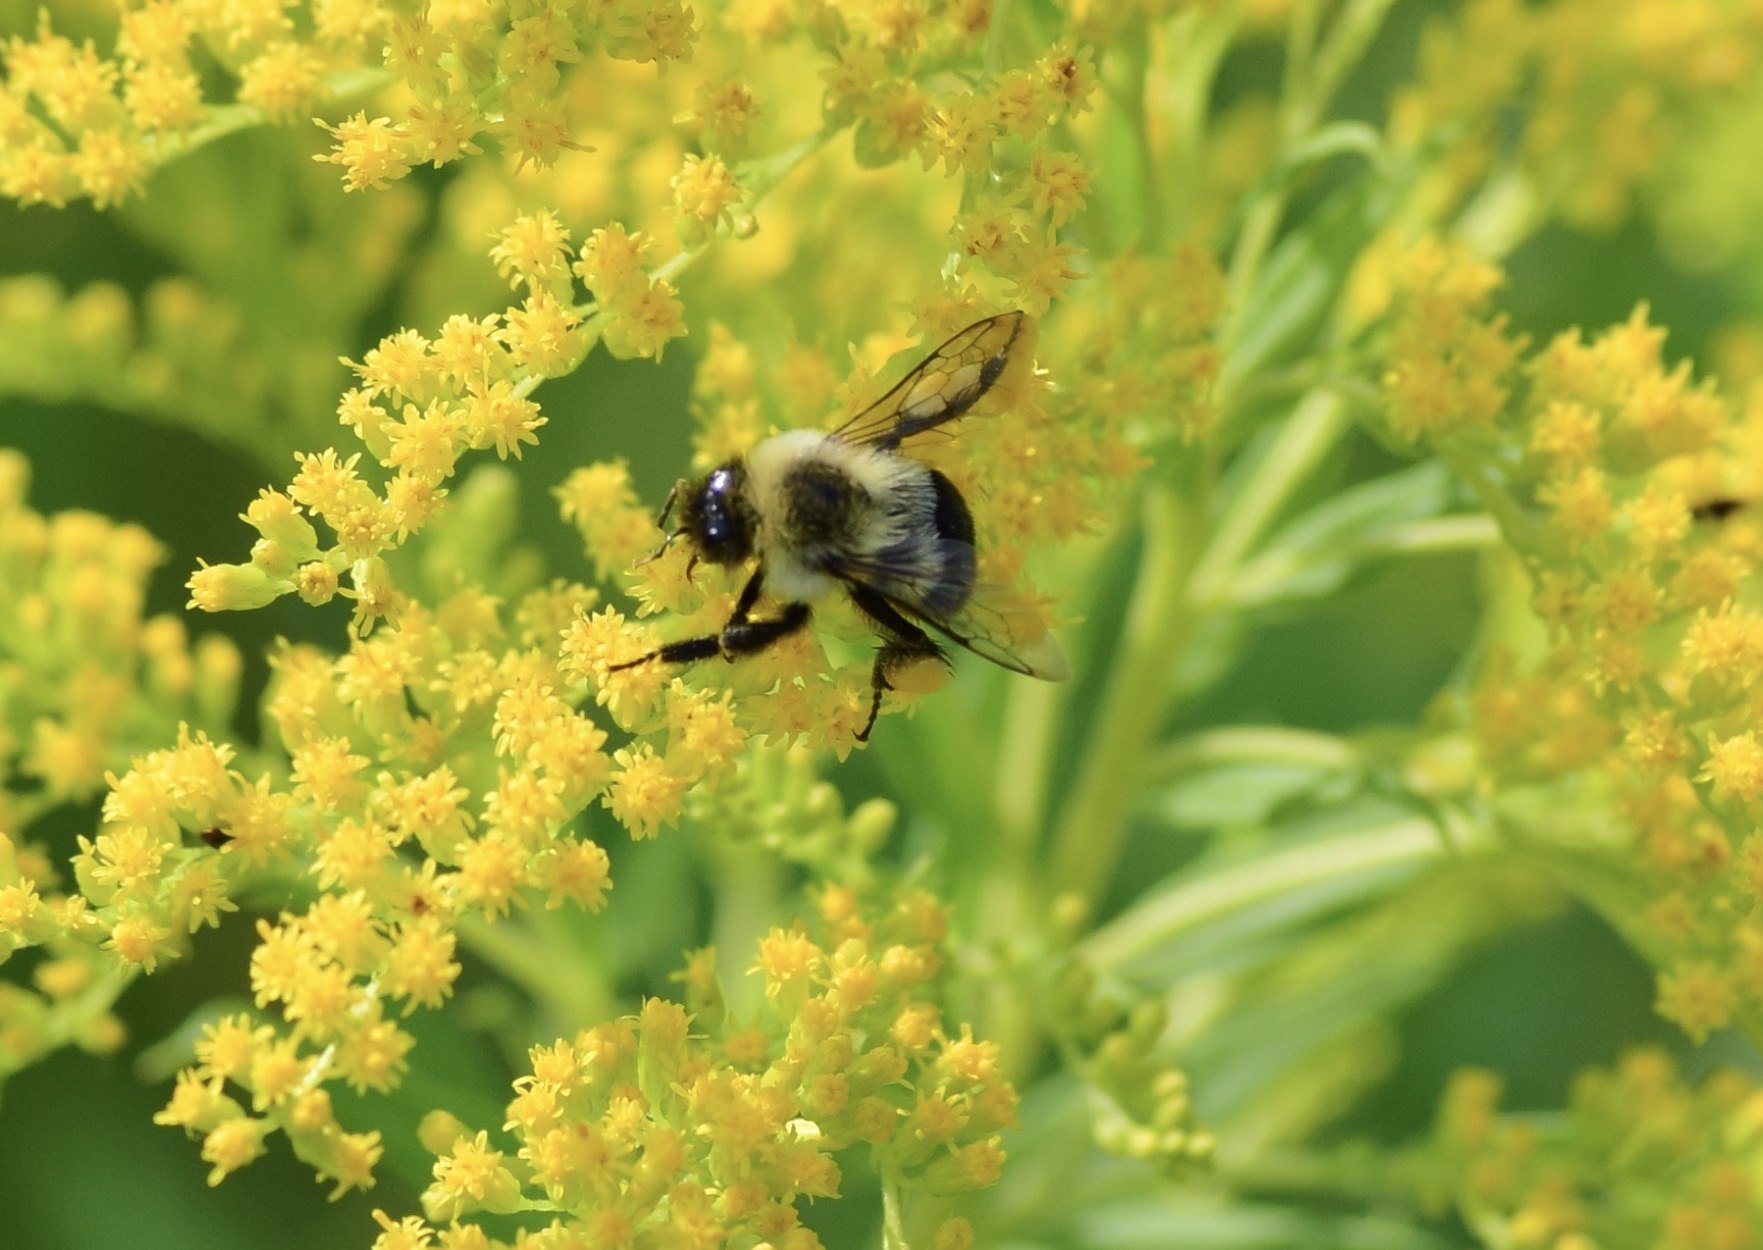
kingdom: Animalia
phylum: Arthropoda
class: Insecta
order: Hymenoptera
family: Apidae
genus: Bombus
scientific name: Bombus impatiens
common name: Common eastern bumble bee
